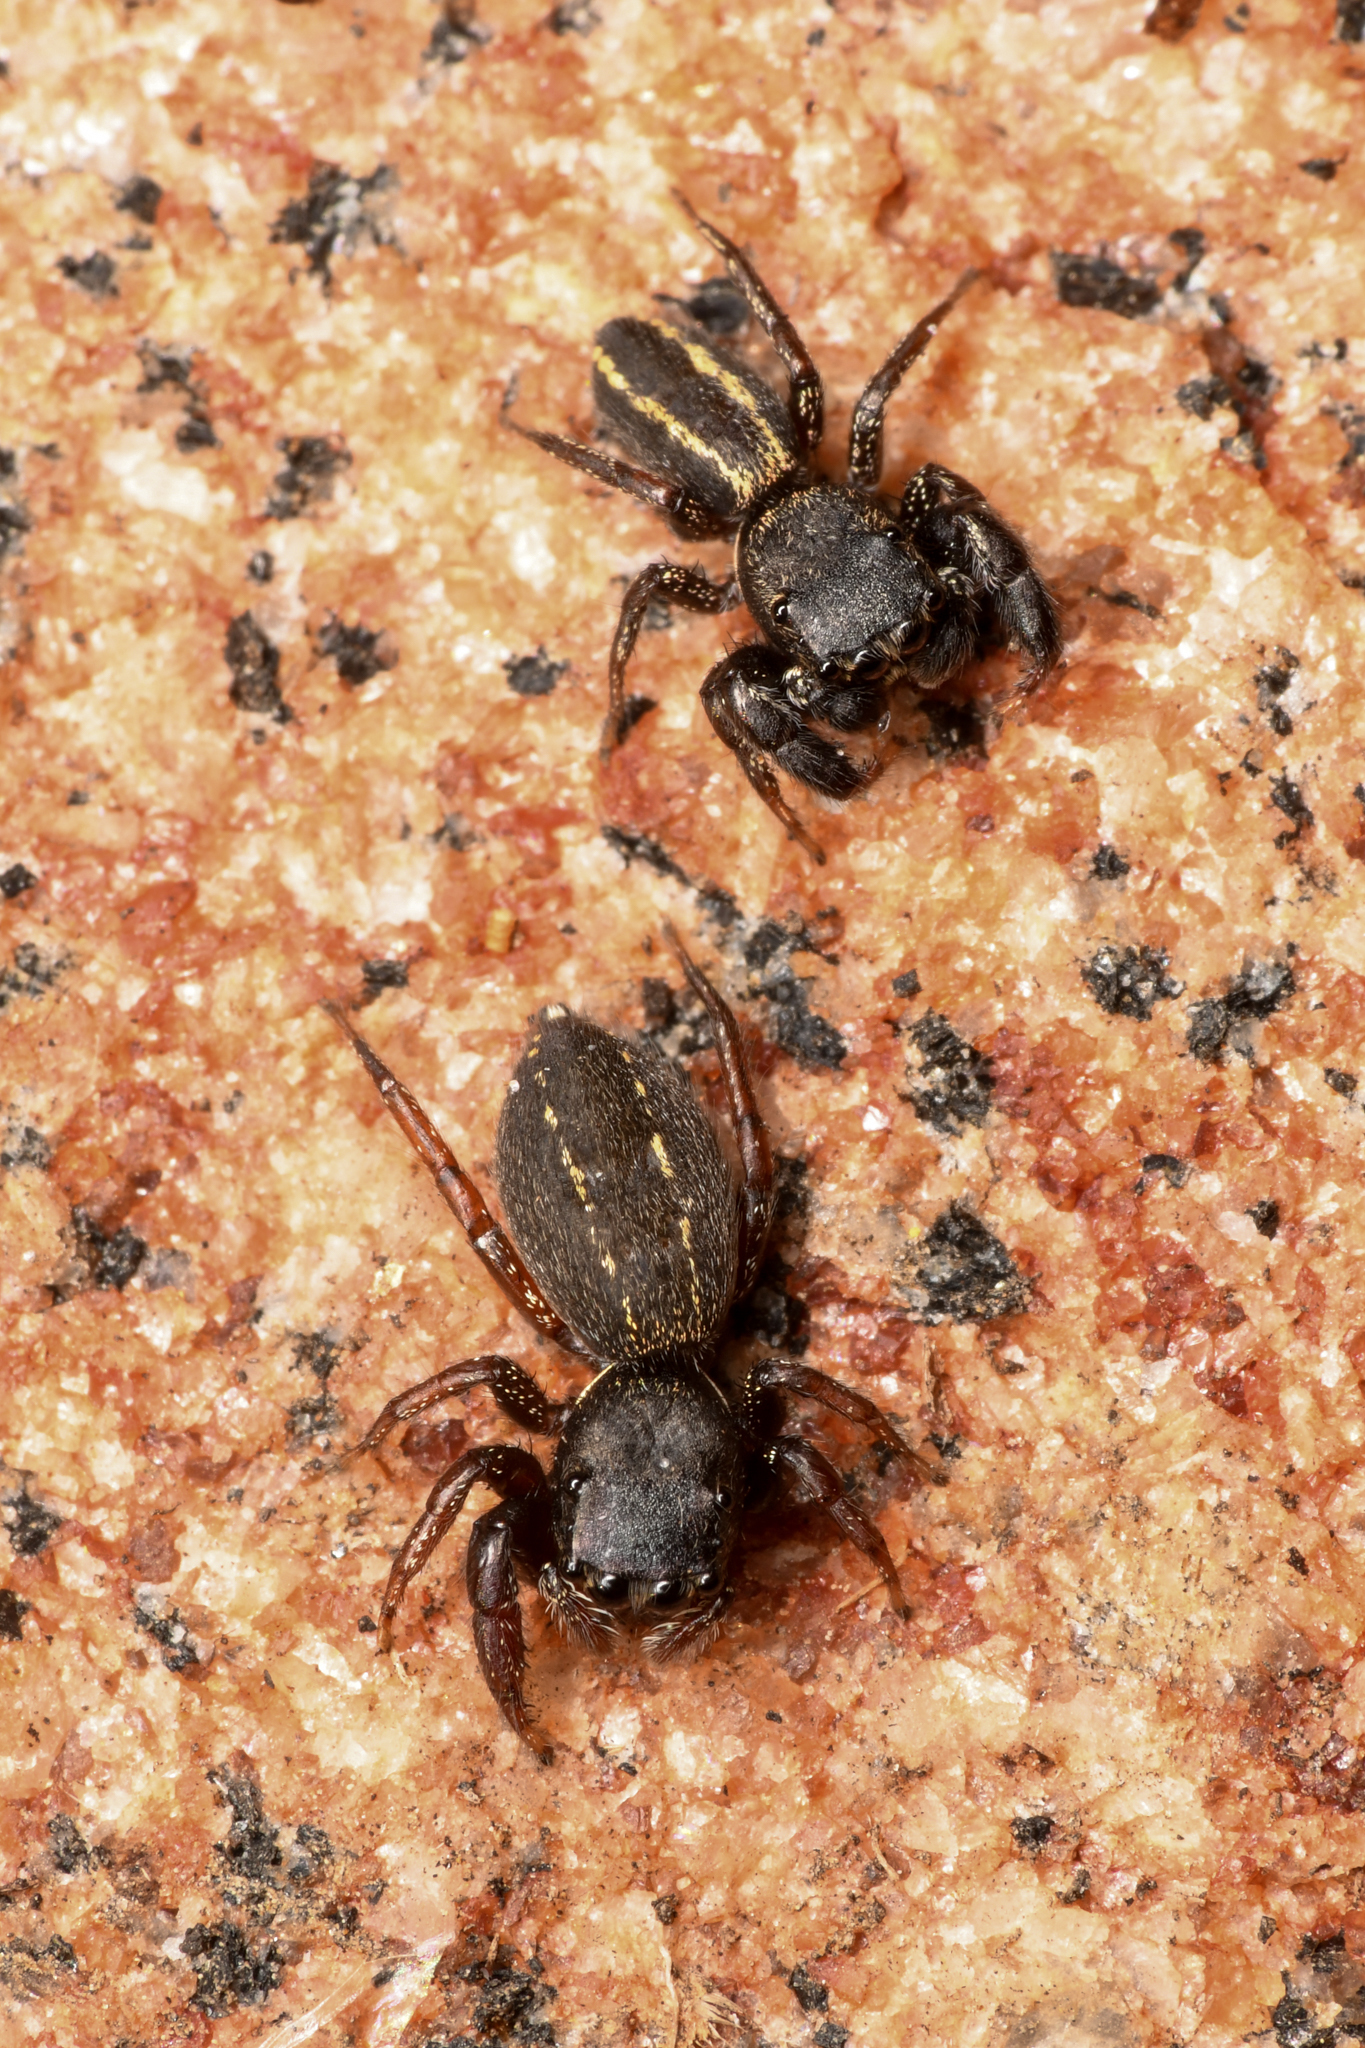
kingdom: Animalia
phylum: Arthropoda
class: Arachnida
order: Araneae
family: Salticidae
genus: Metacyrba
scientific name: Metacyrba taeniola
